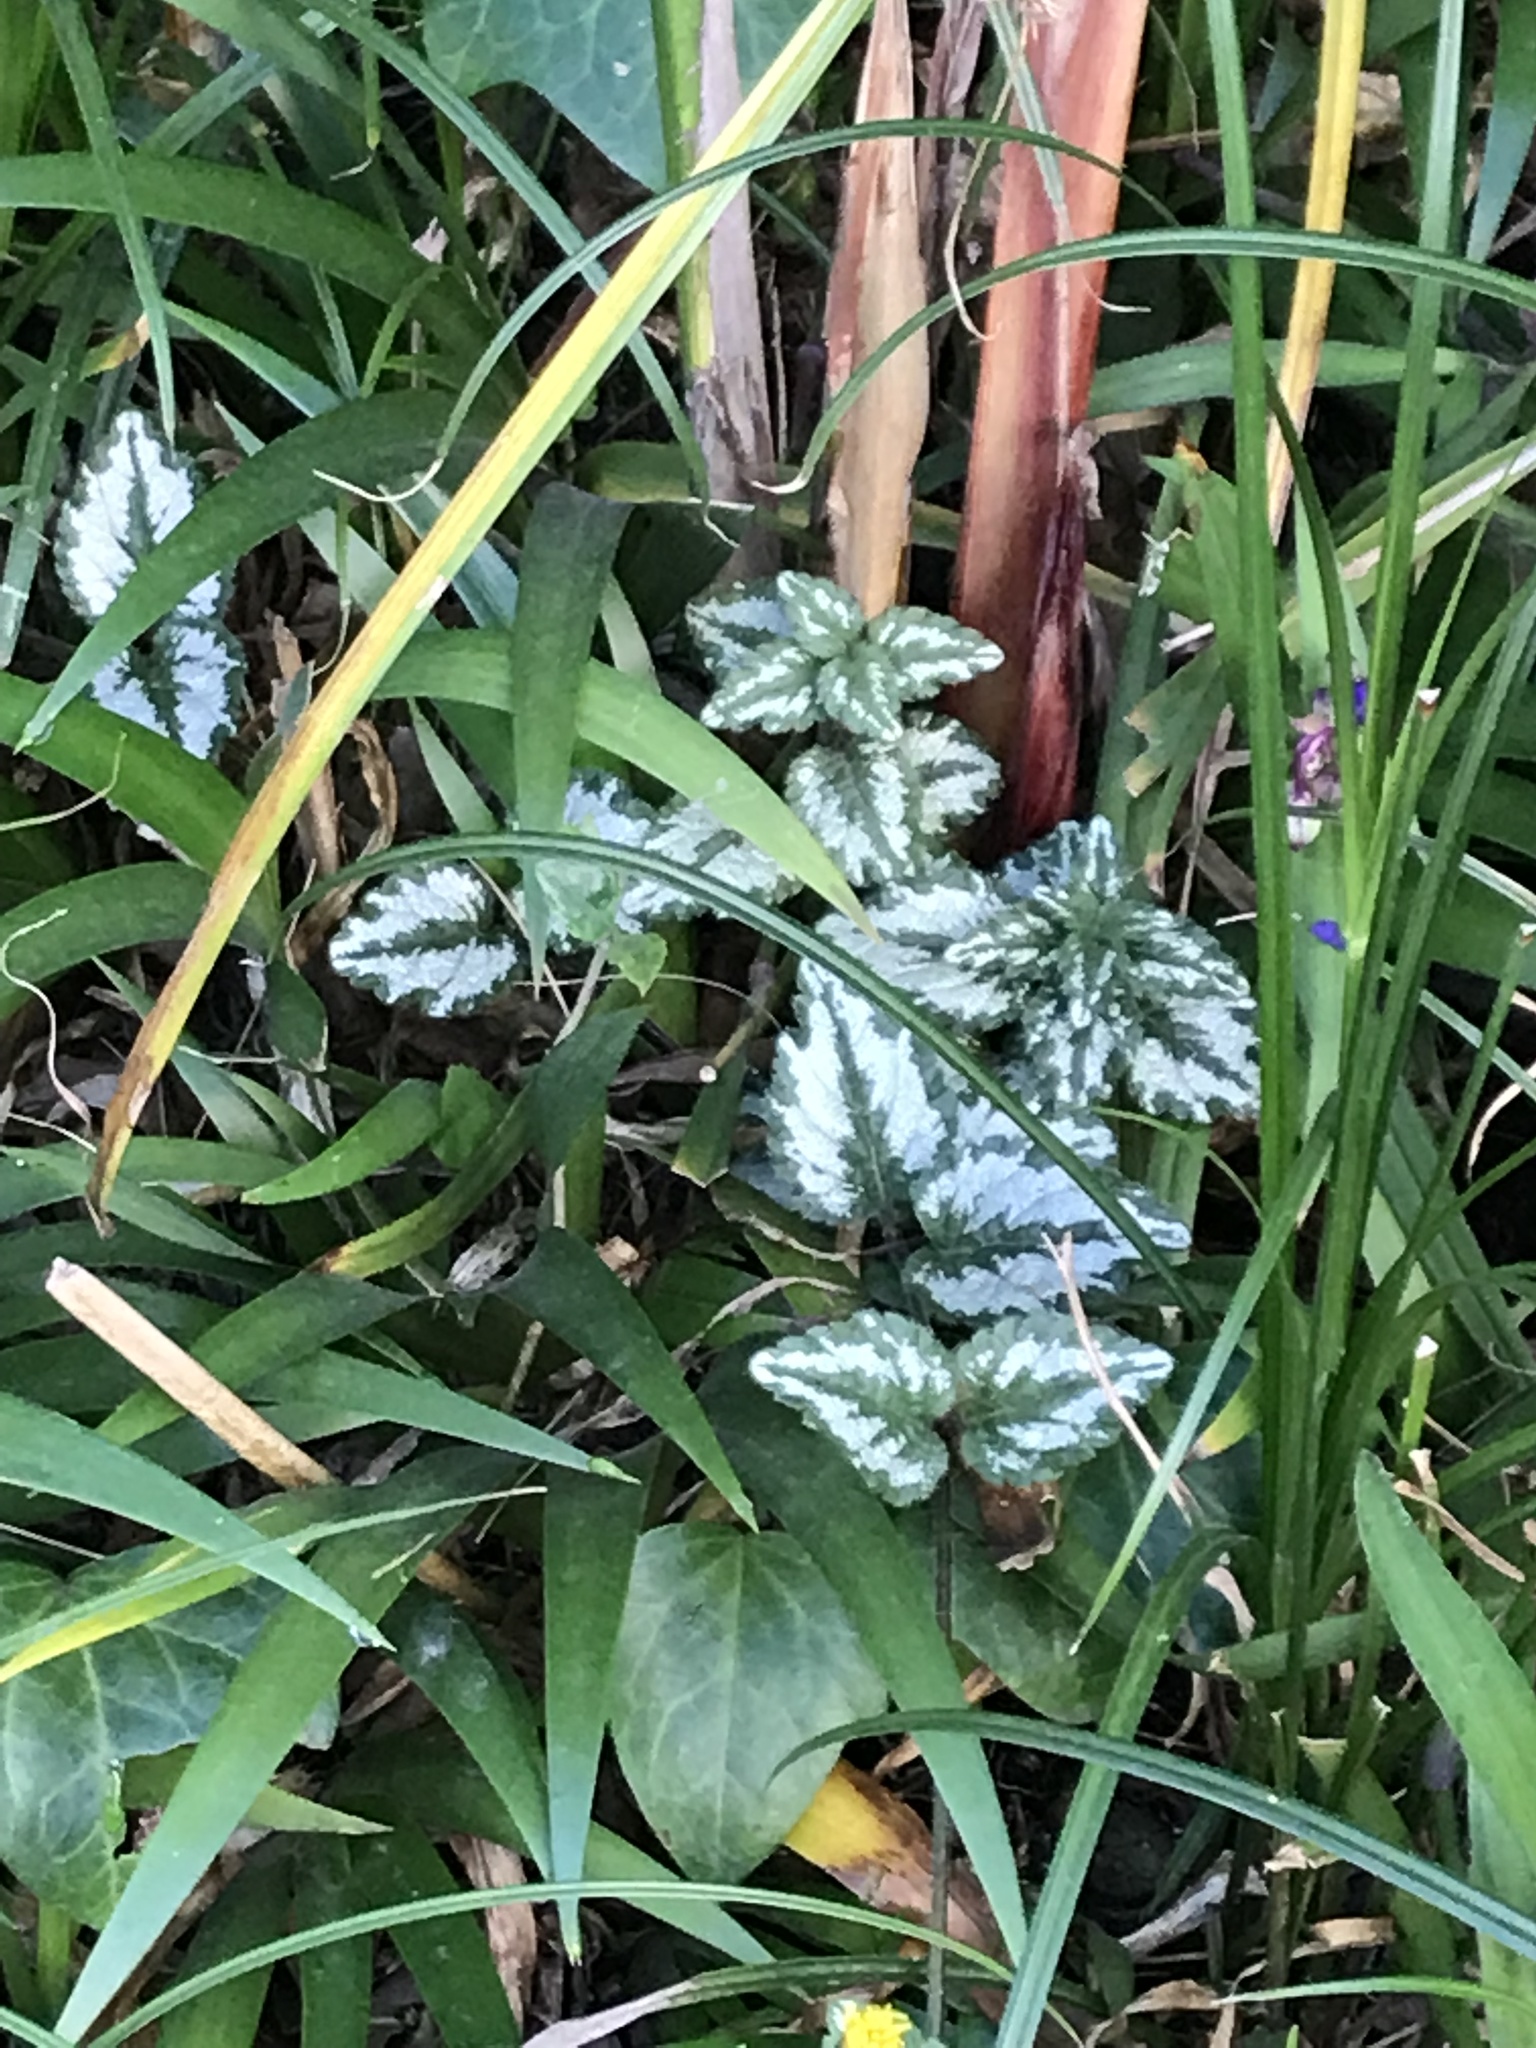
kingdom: Plantae
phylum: Tracheophyta
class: Magnoliopsida
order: Lamiales
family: Lamiaceae
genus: Lamium
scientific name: Lamium galeobdolon
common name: Yellow archangel
